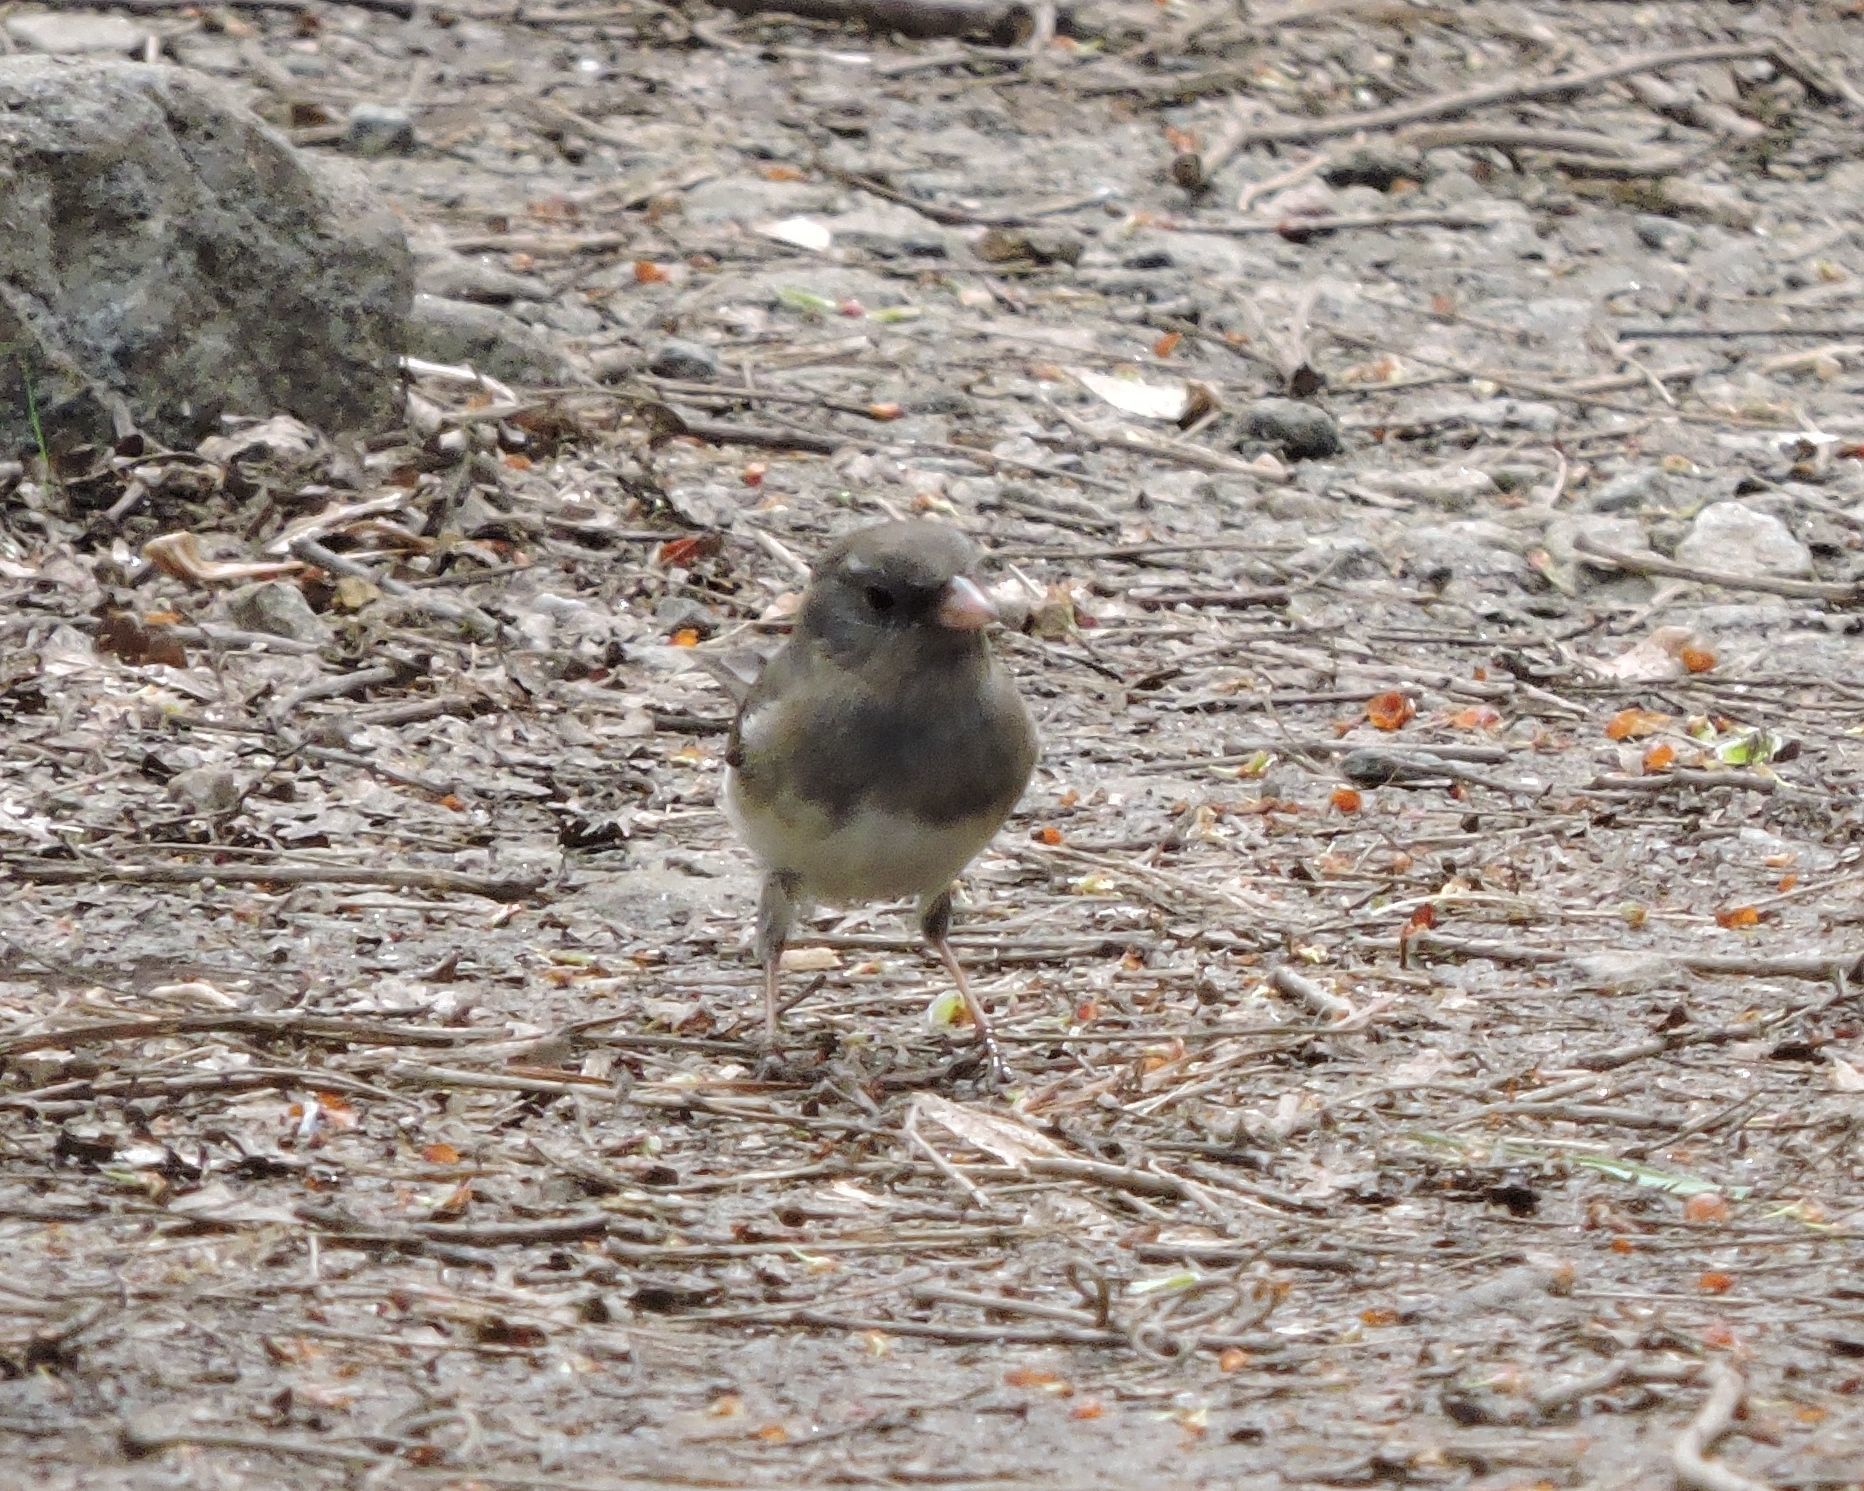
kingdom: Animalia
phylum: Chordata
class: Aves
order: Passeriformes
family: Passerellidae
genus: Junco
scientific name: Junco hyemalis
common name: Dark-eyed junco
